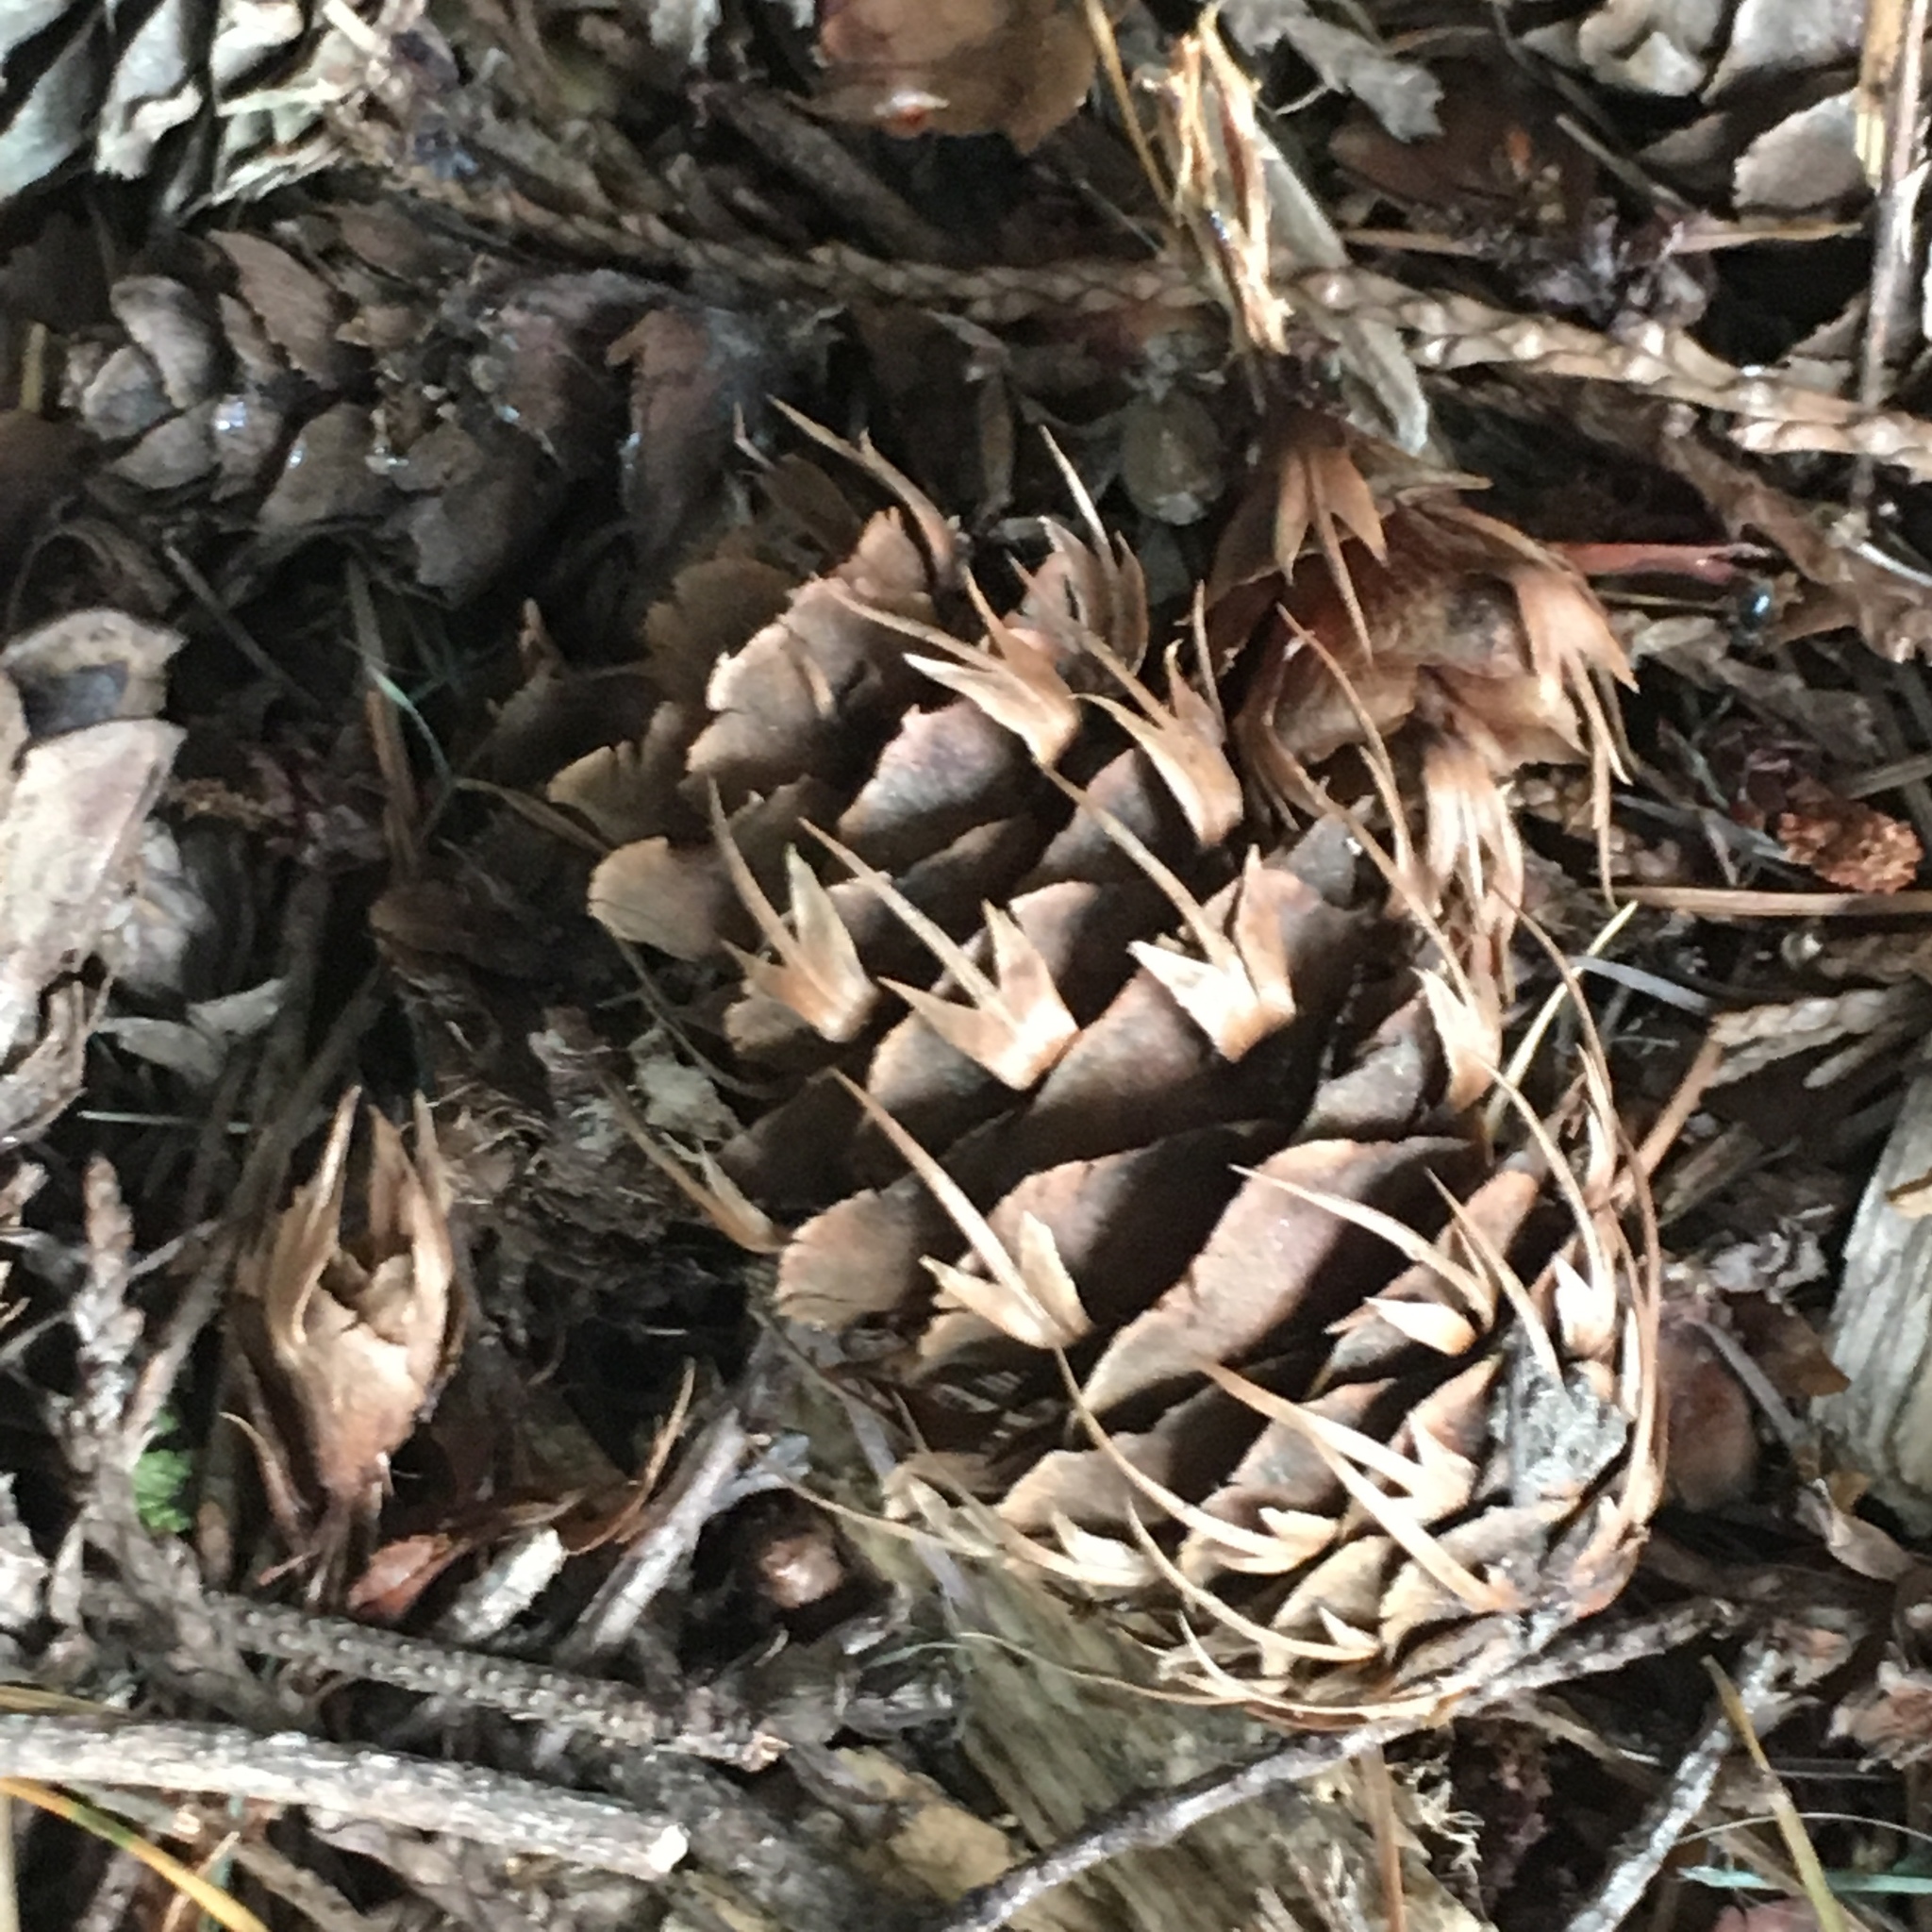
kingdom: Plantae
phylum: Tracheophyta
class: Pinopsida
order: Pinales
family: Pinaceae
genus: Pseudotsuga
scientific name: Pseudotsuga menziesii
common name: Douglas fir
